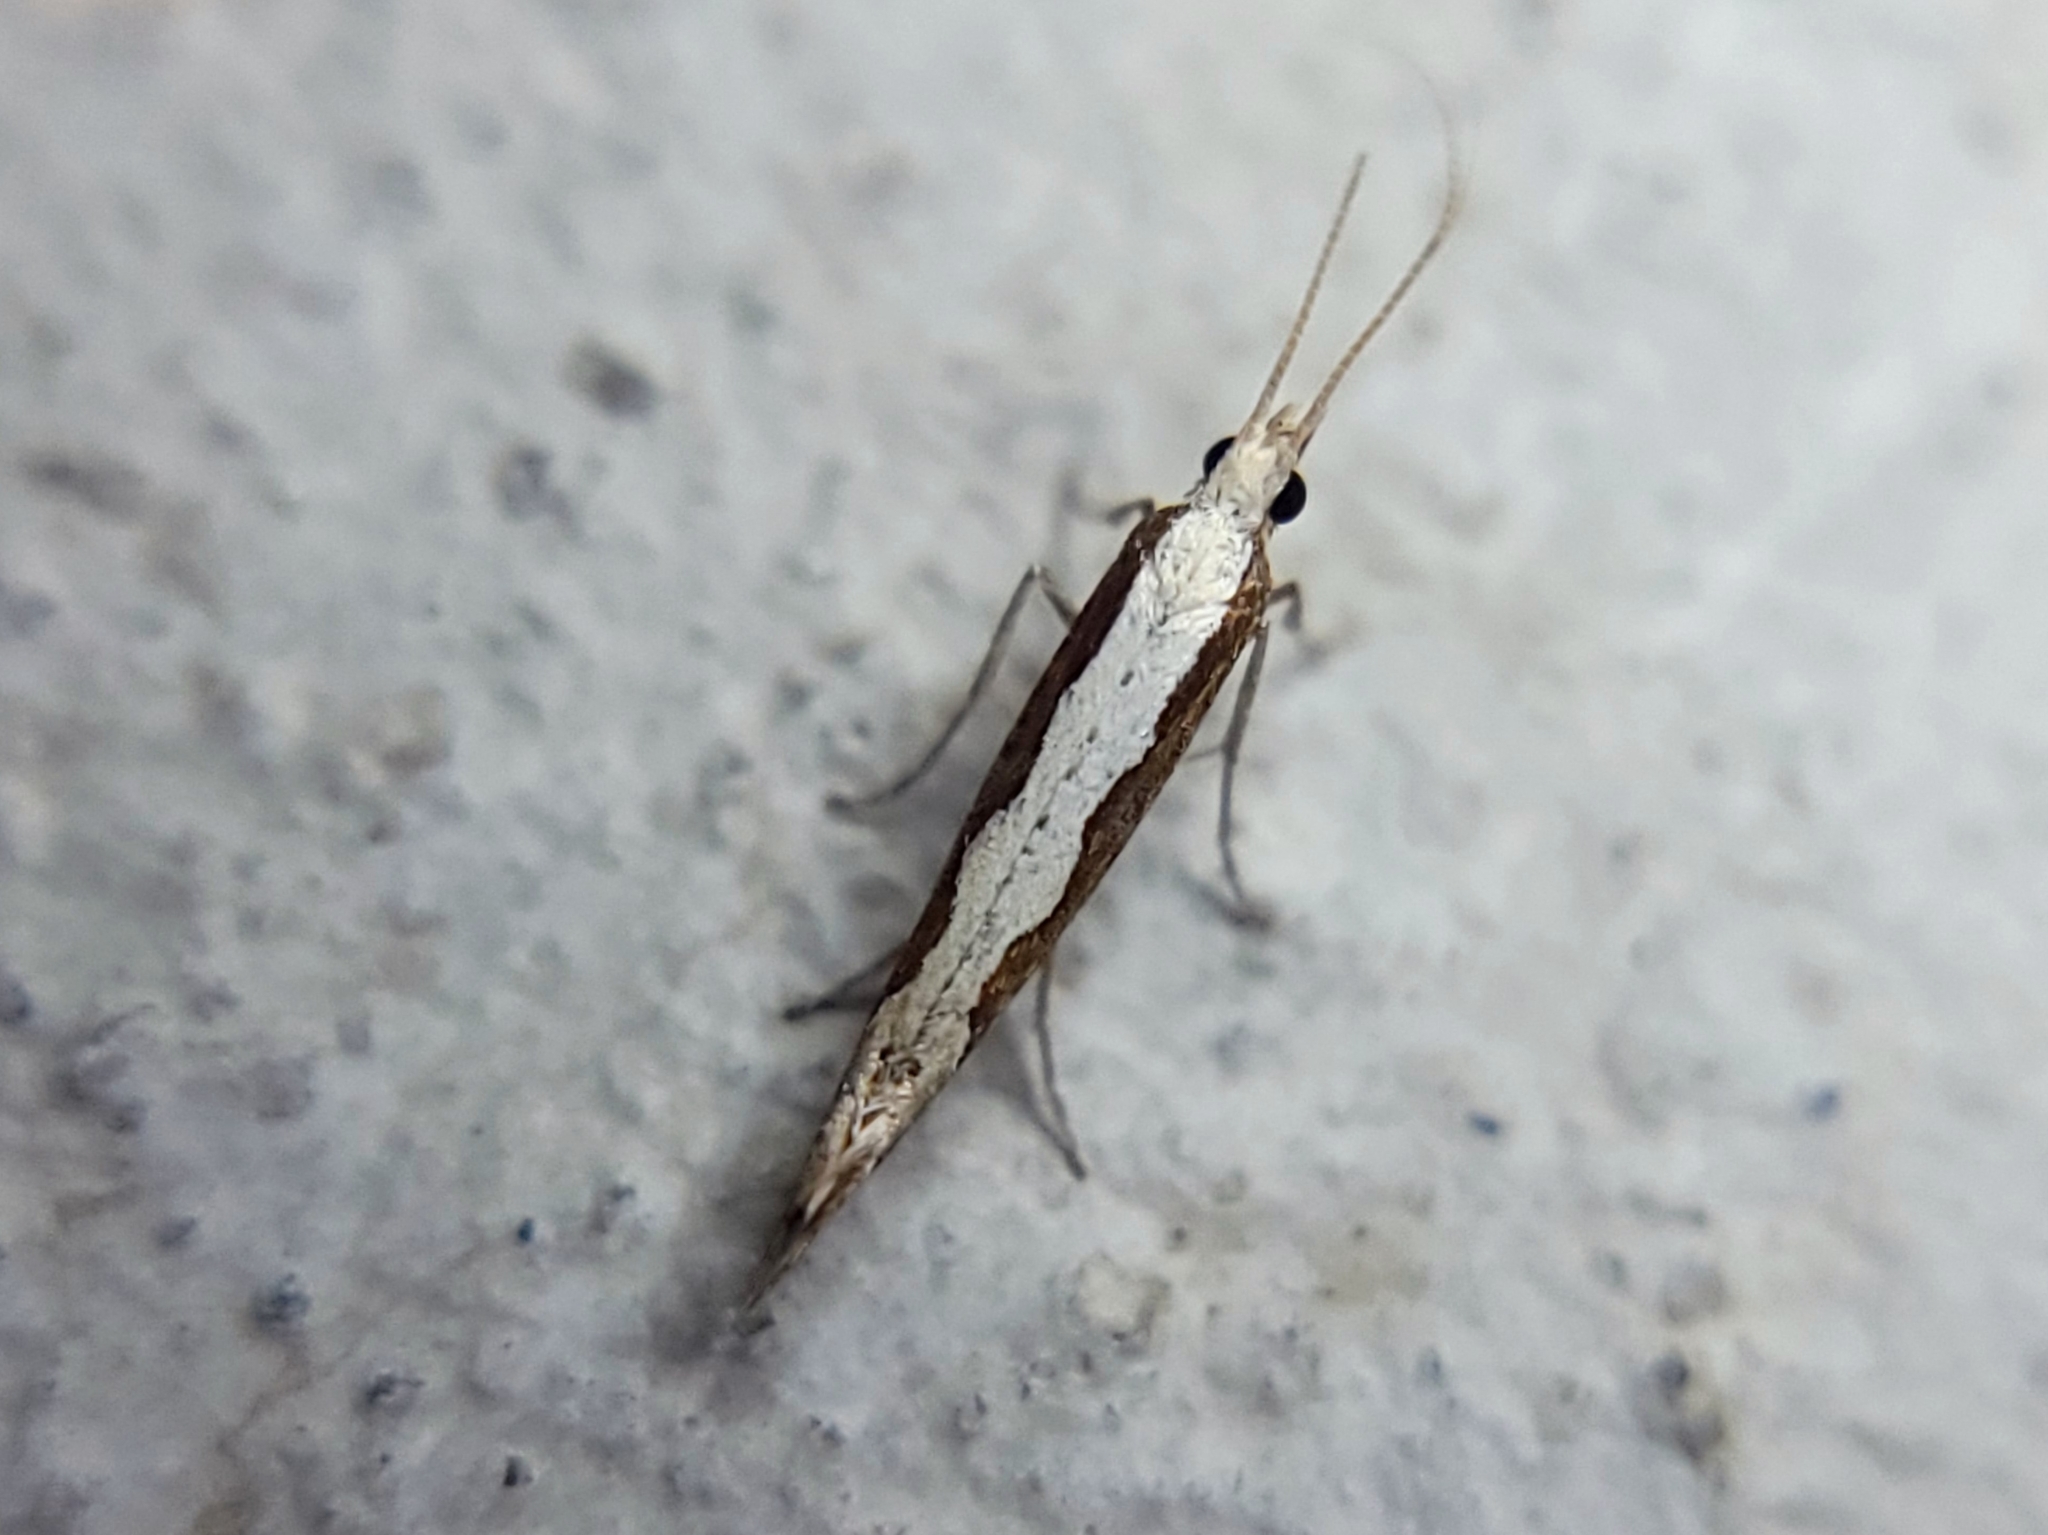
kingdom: Animalia
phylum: Arthropoda
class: Insecta
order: Lepidoptera
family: Plutellidae
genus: Plutella
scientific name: Plutella xylostella
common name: Diamond-back moth
